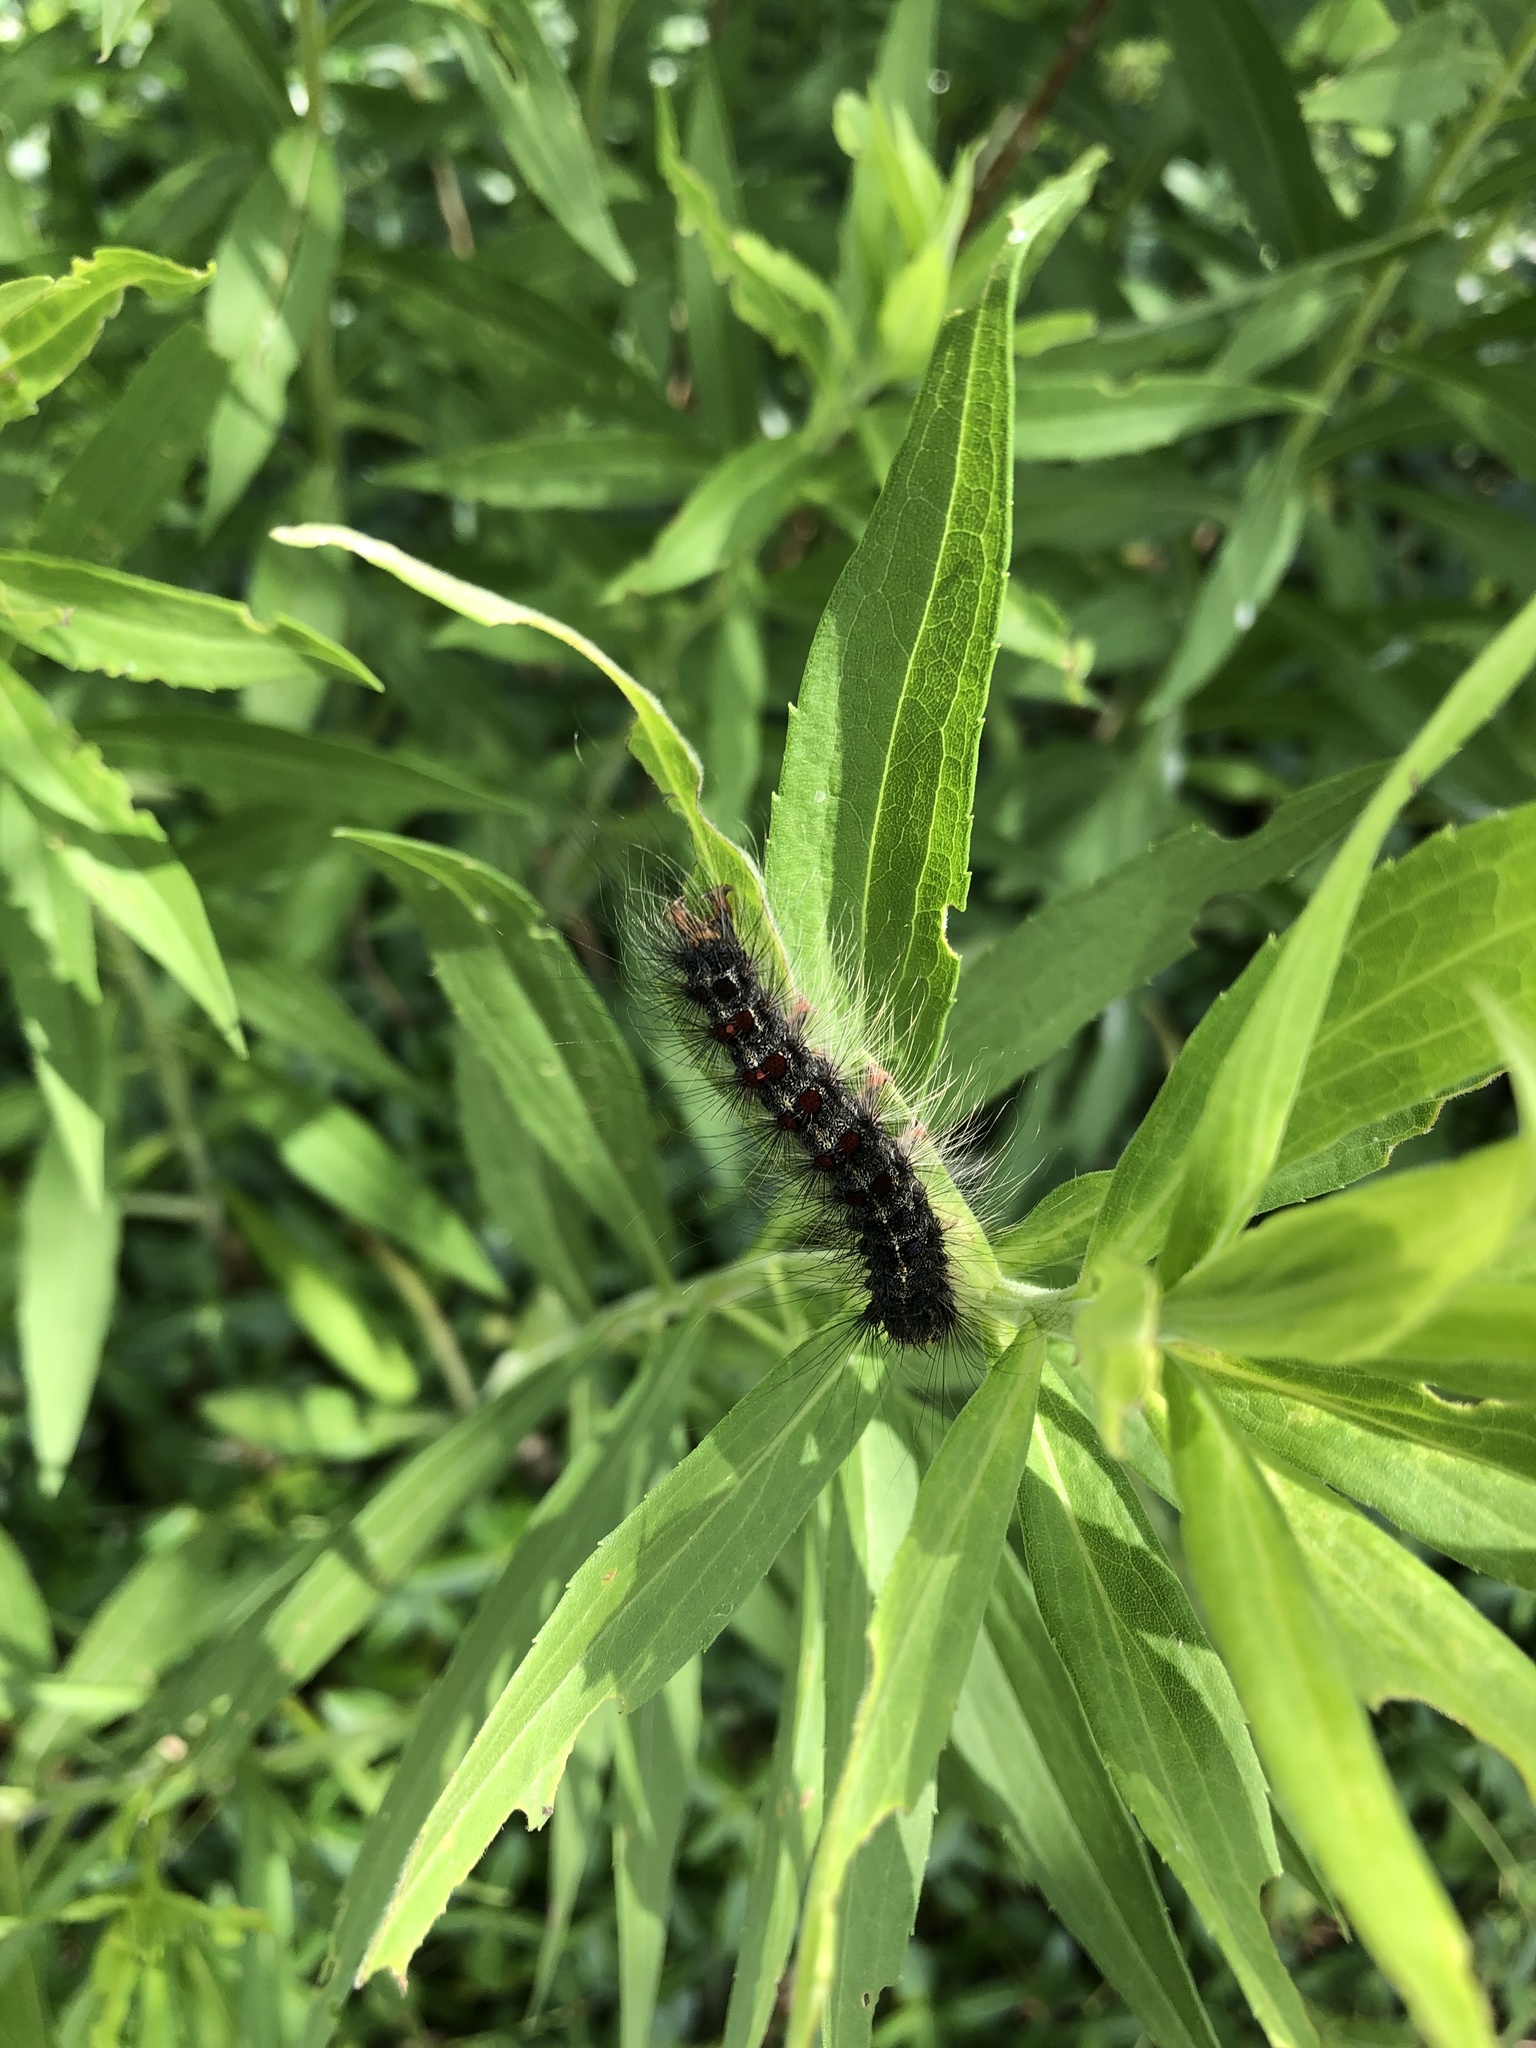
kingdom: Animalia
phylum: Arthropoda
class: Insecta
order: Lepidoptera
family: Erebidae
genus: Lymantria
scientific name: Lymantria dispar
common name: Gypsy moth
